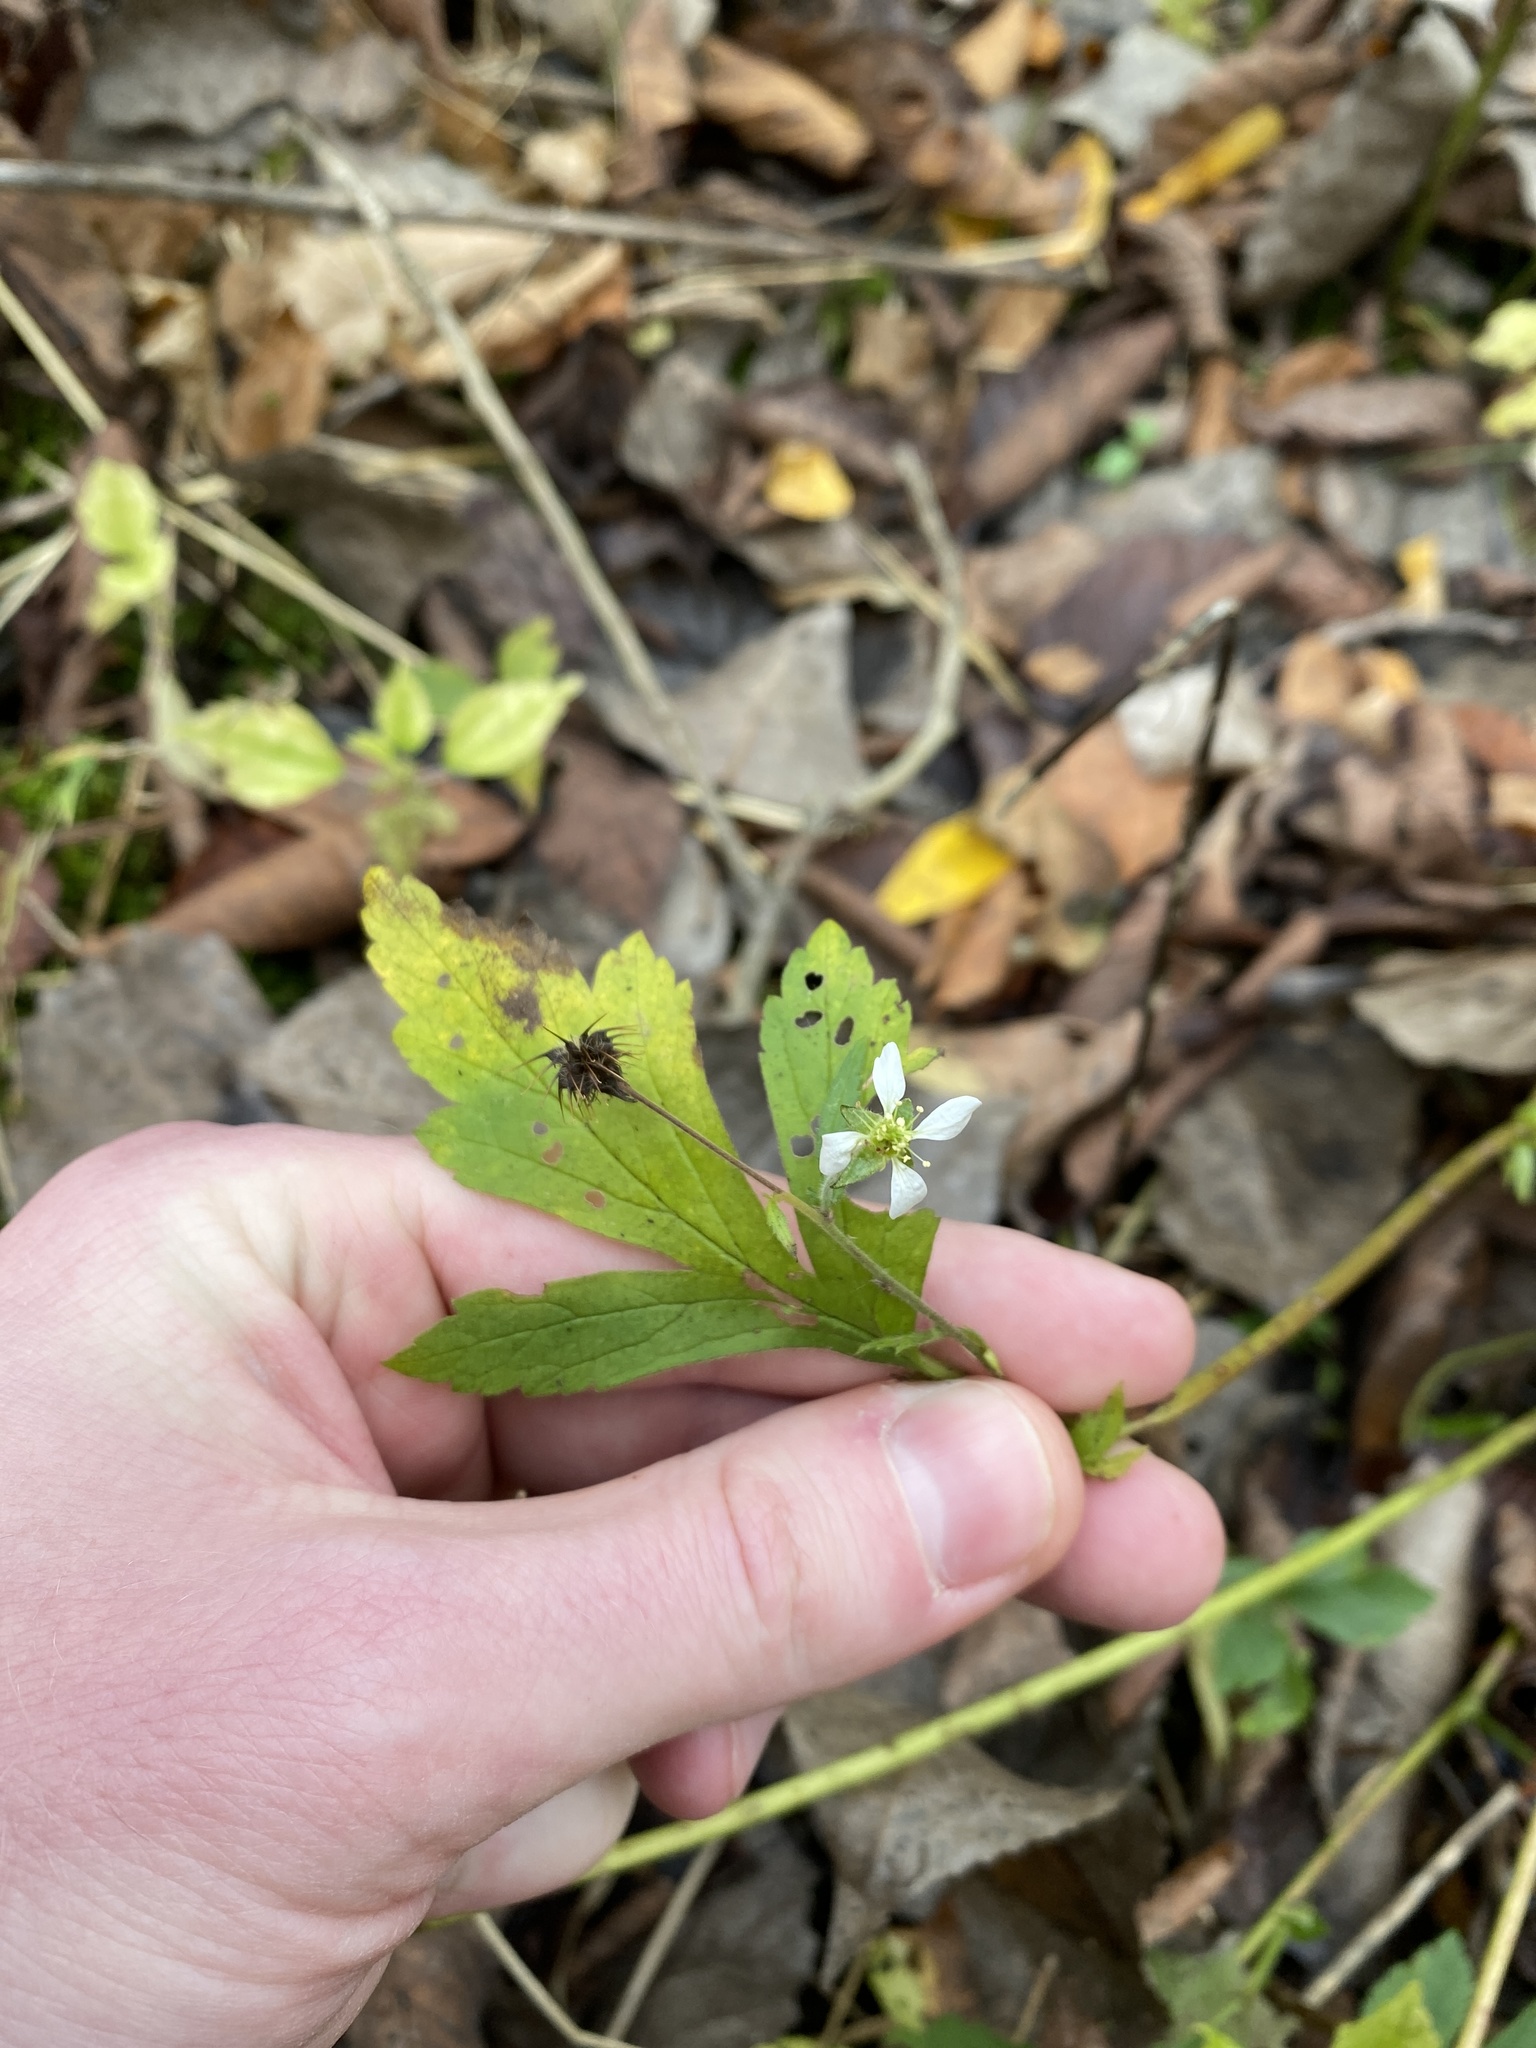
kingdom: Plantae
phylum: Tracheophyta
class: Magnoliopsida
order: Rosales
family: Rosaceae
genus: Geum
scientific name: Geum canadense
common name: White avens
